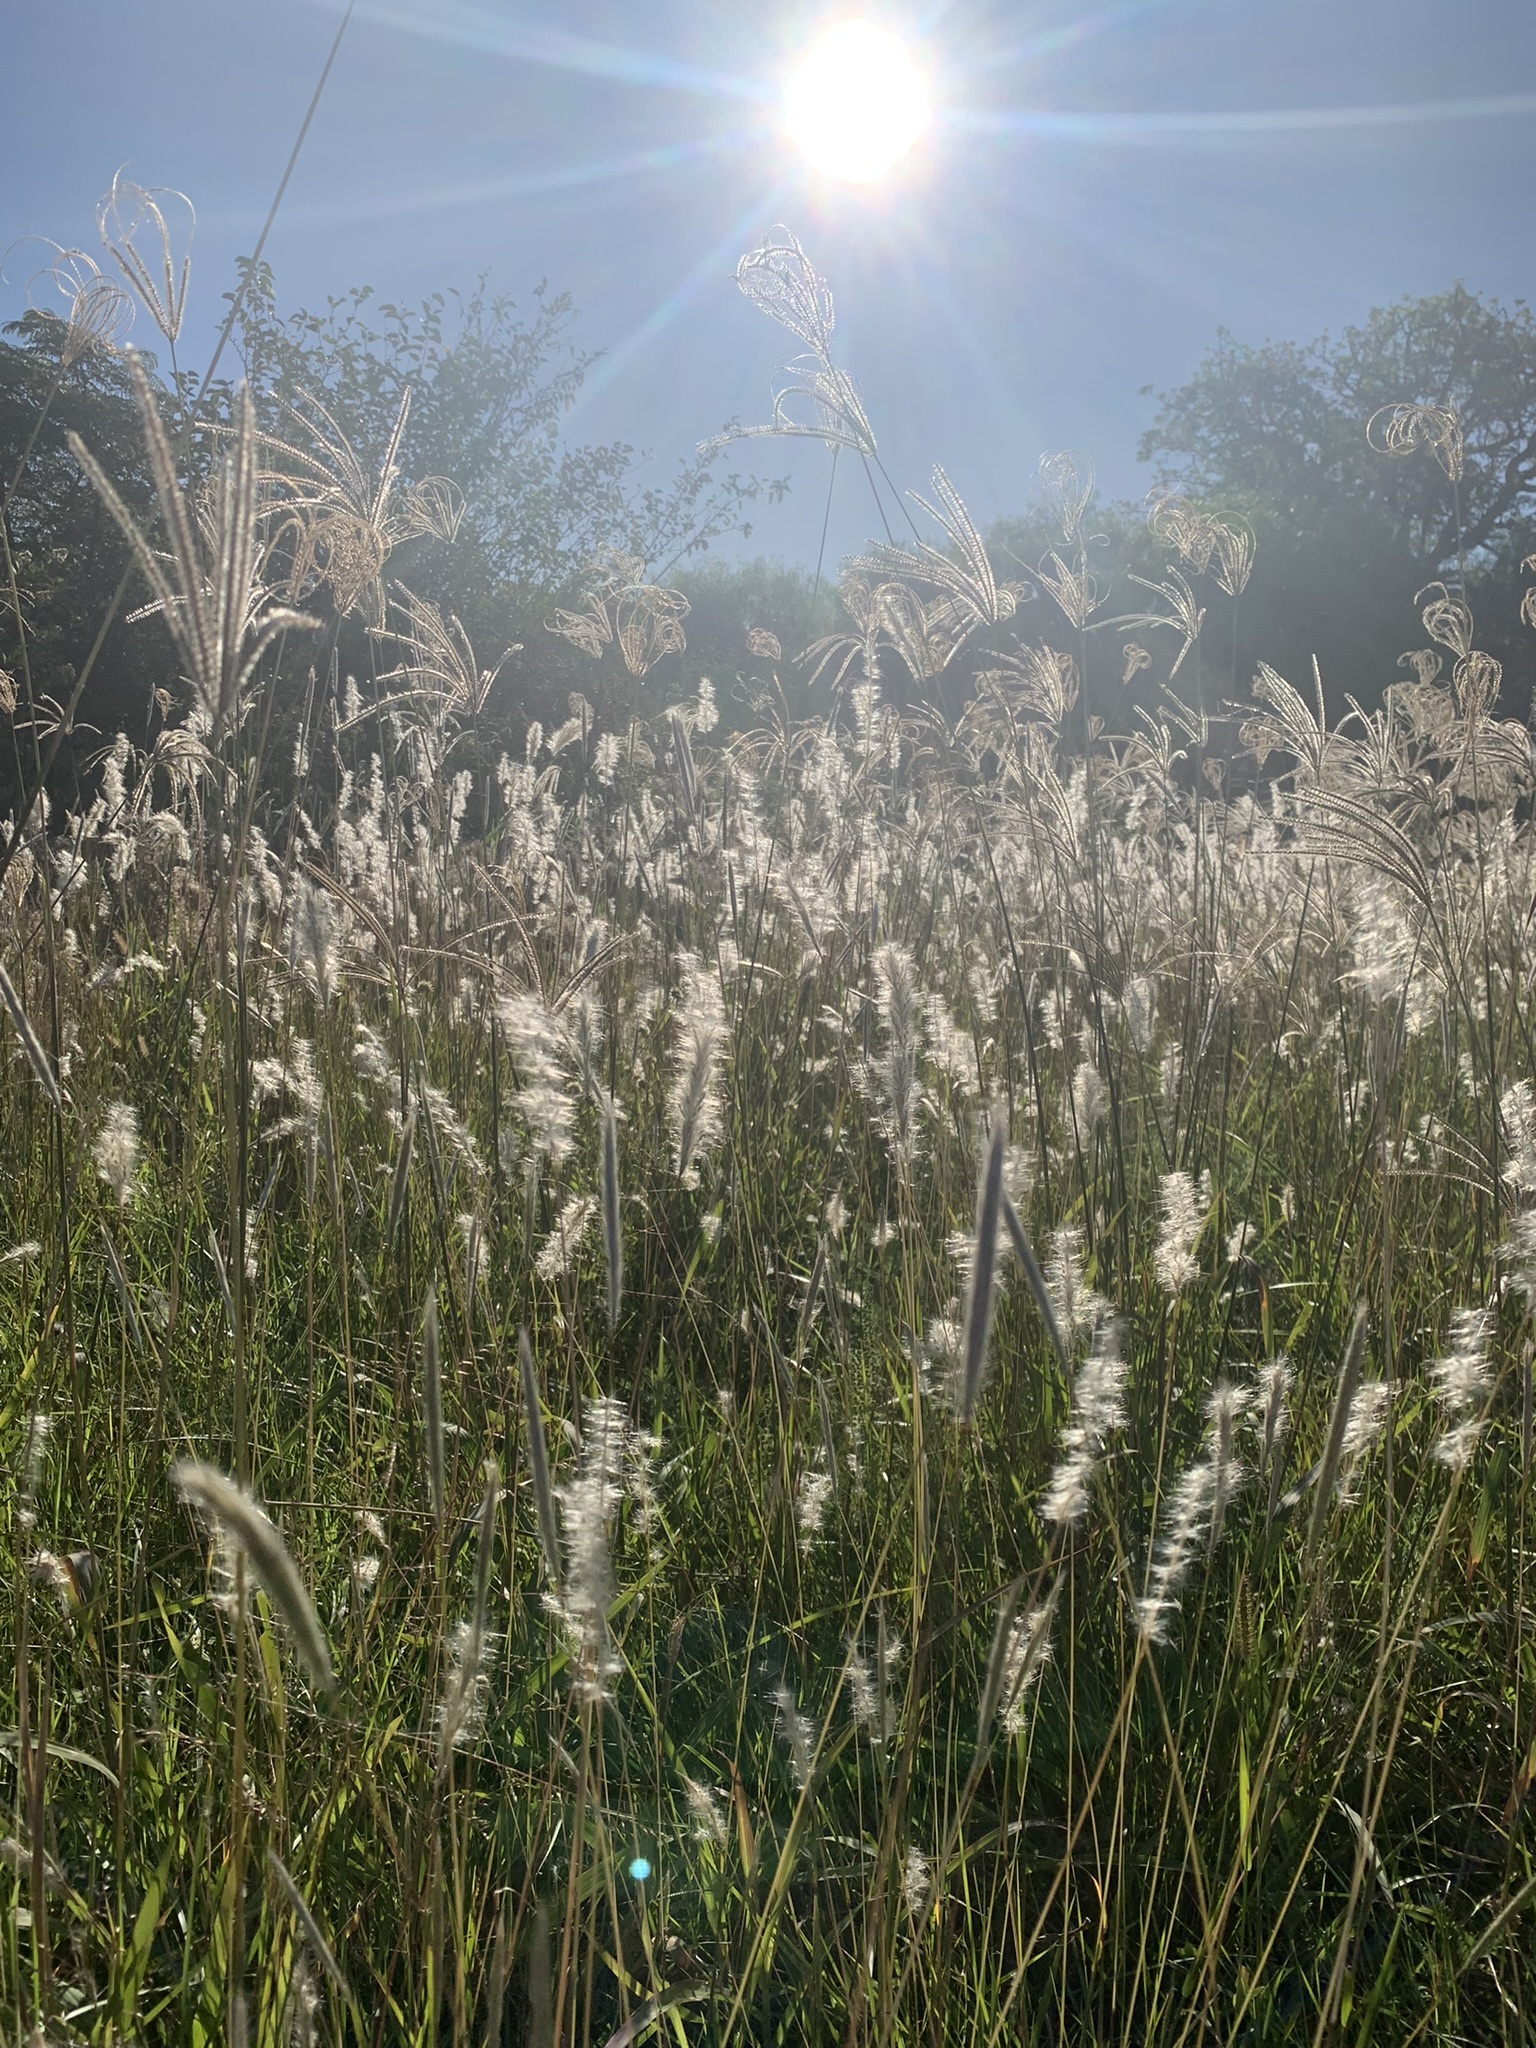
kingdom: Plantae
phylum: Tracheophyta
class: Liliopsida
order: Poales
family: Poaceae
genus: Bothriochloa
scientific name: Bothriochloa laguroides
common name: Silver bluestem
